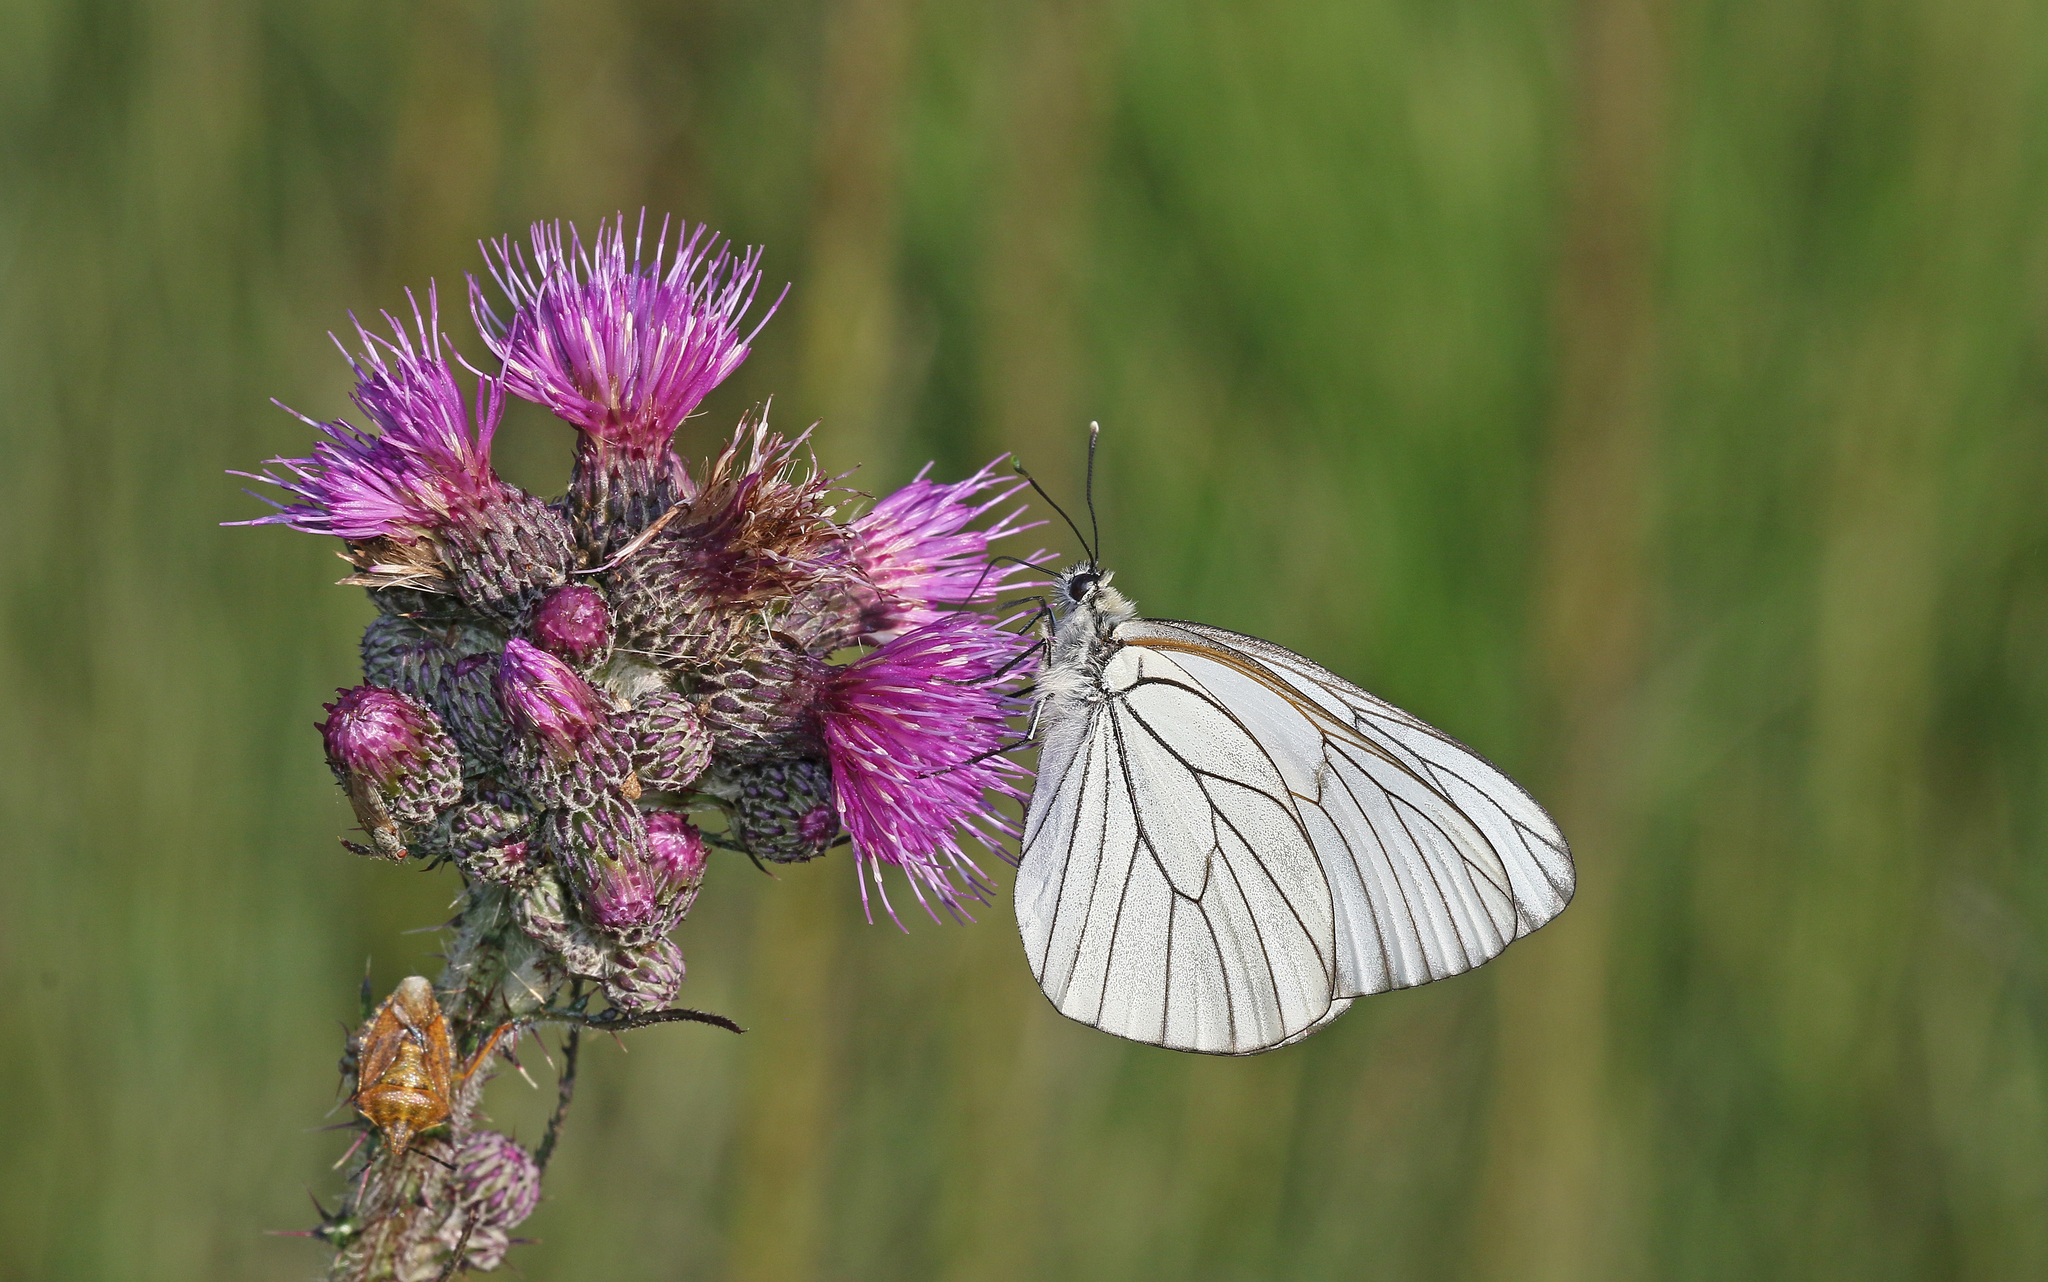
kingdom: Animalia
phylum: Arthropoda
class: Insecta
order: Lepidoptera
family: Pieridae
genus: Aporia
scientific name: Aporia crataegi
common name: Black-veined white
